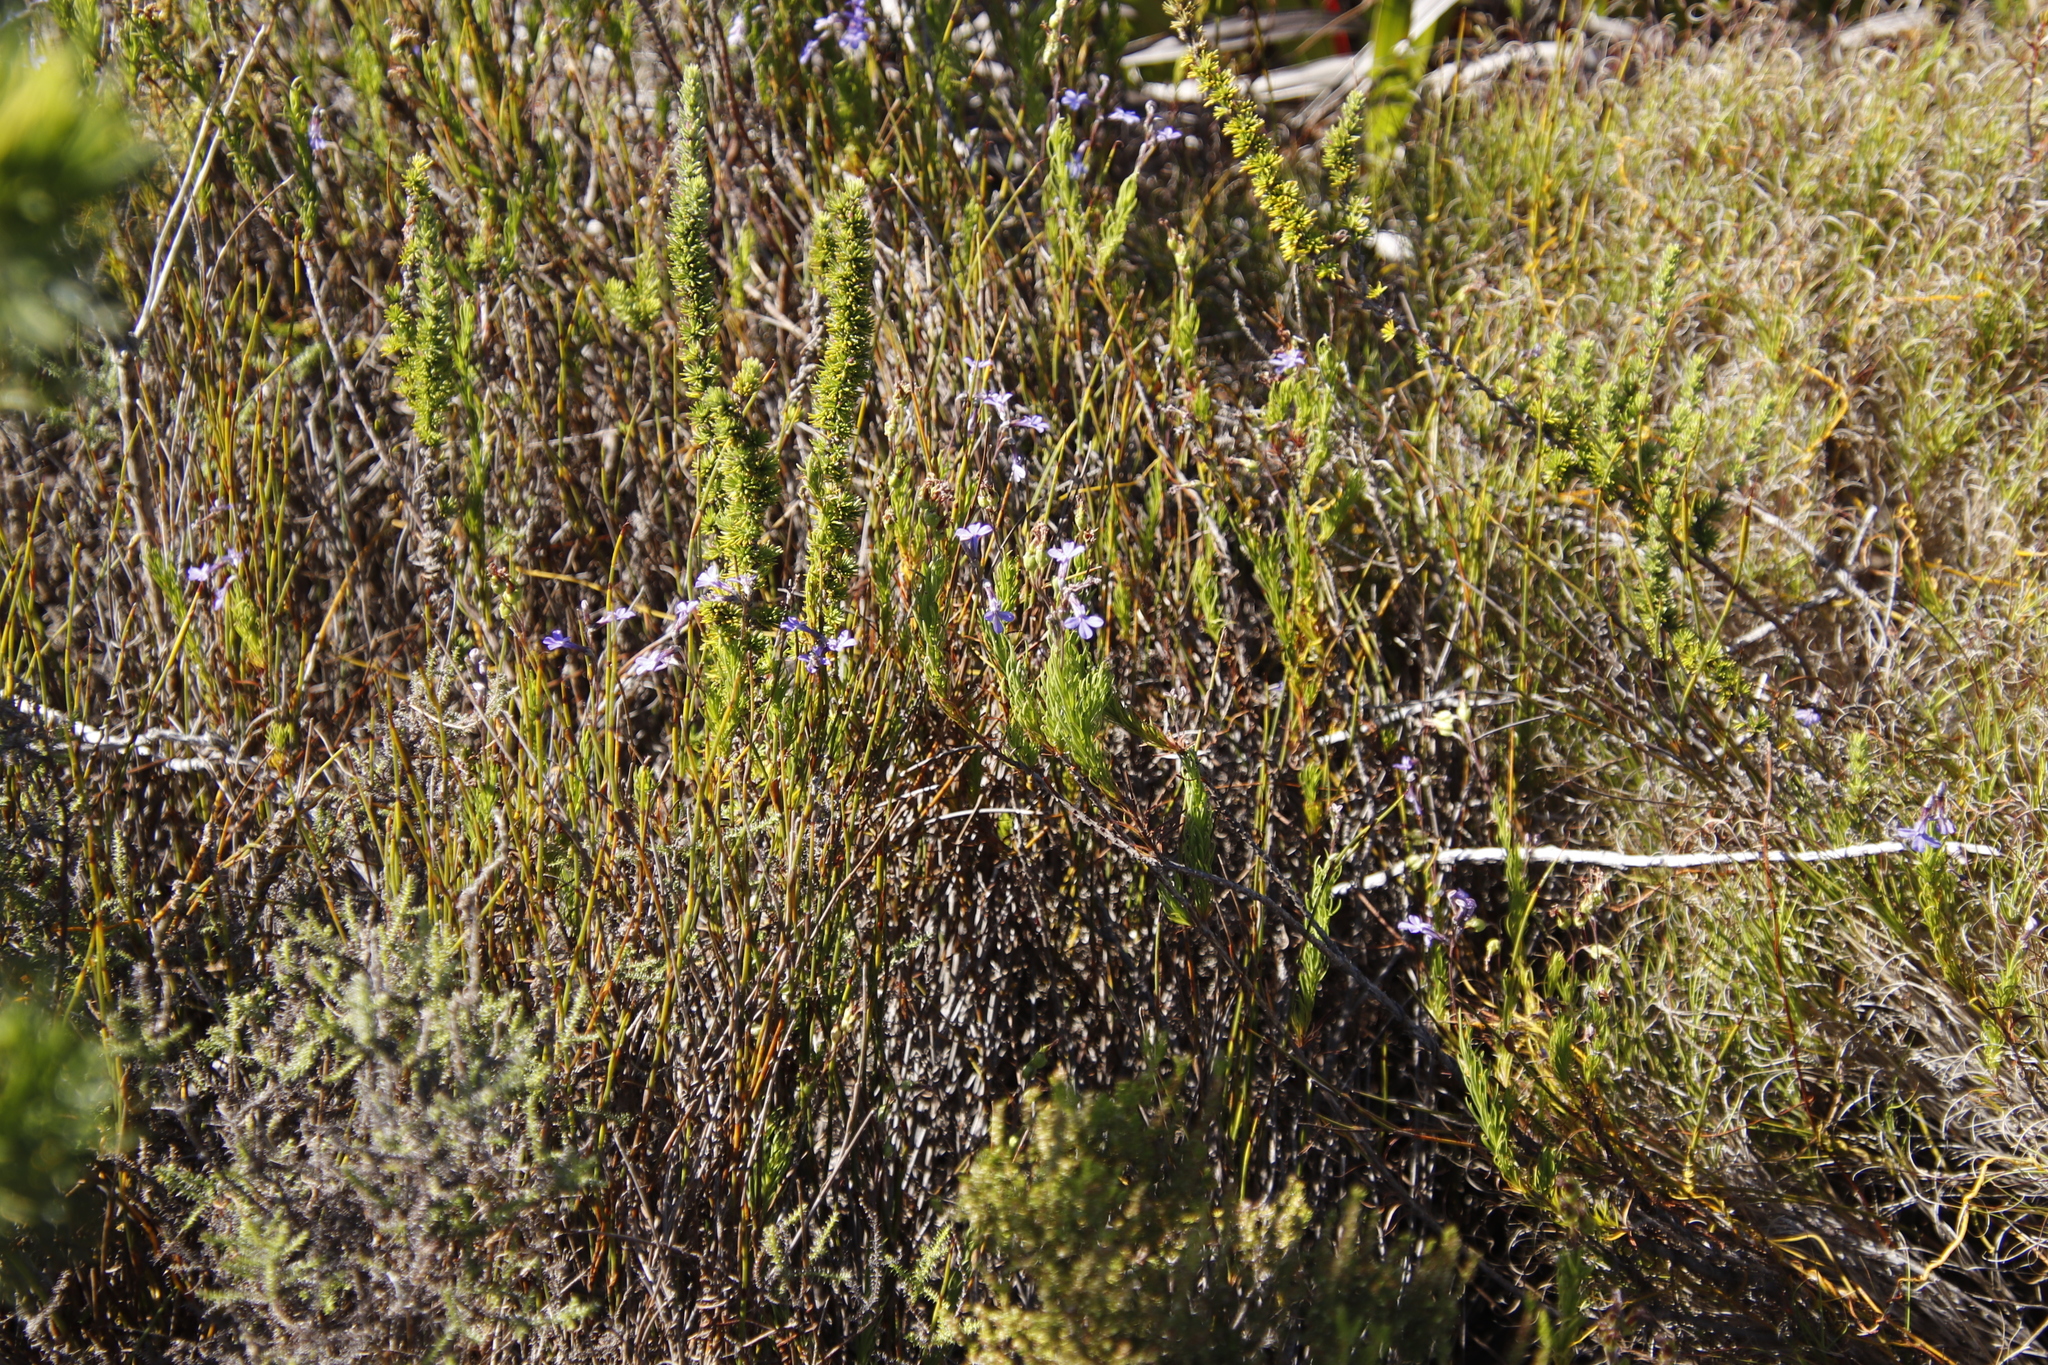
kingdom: Plantae
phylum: Tracheophyta
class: Magnoliopsida
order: Asterales
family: Campanulaceae
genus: Lobelia
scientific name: Lobelia pinifolia
